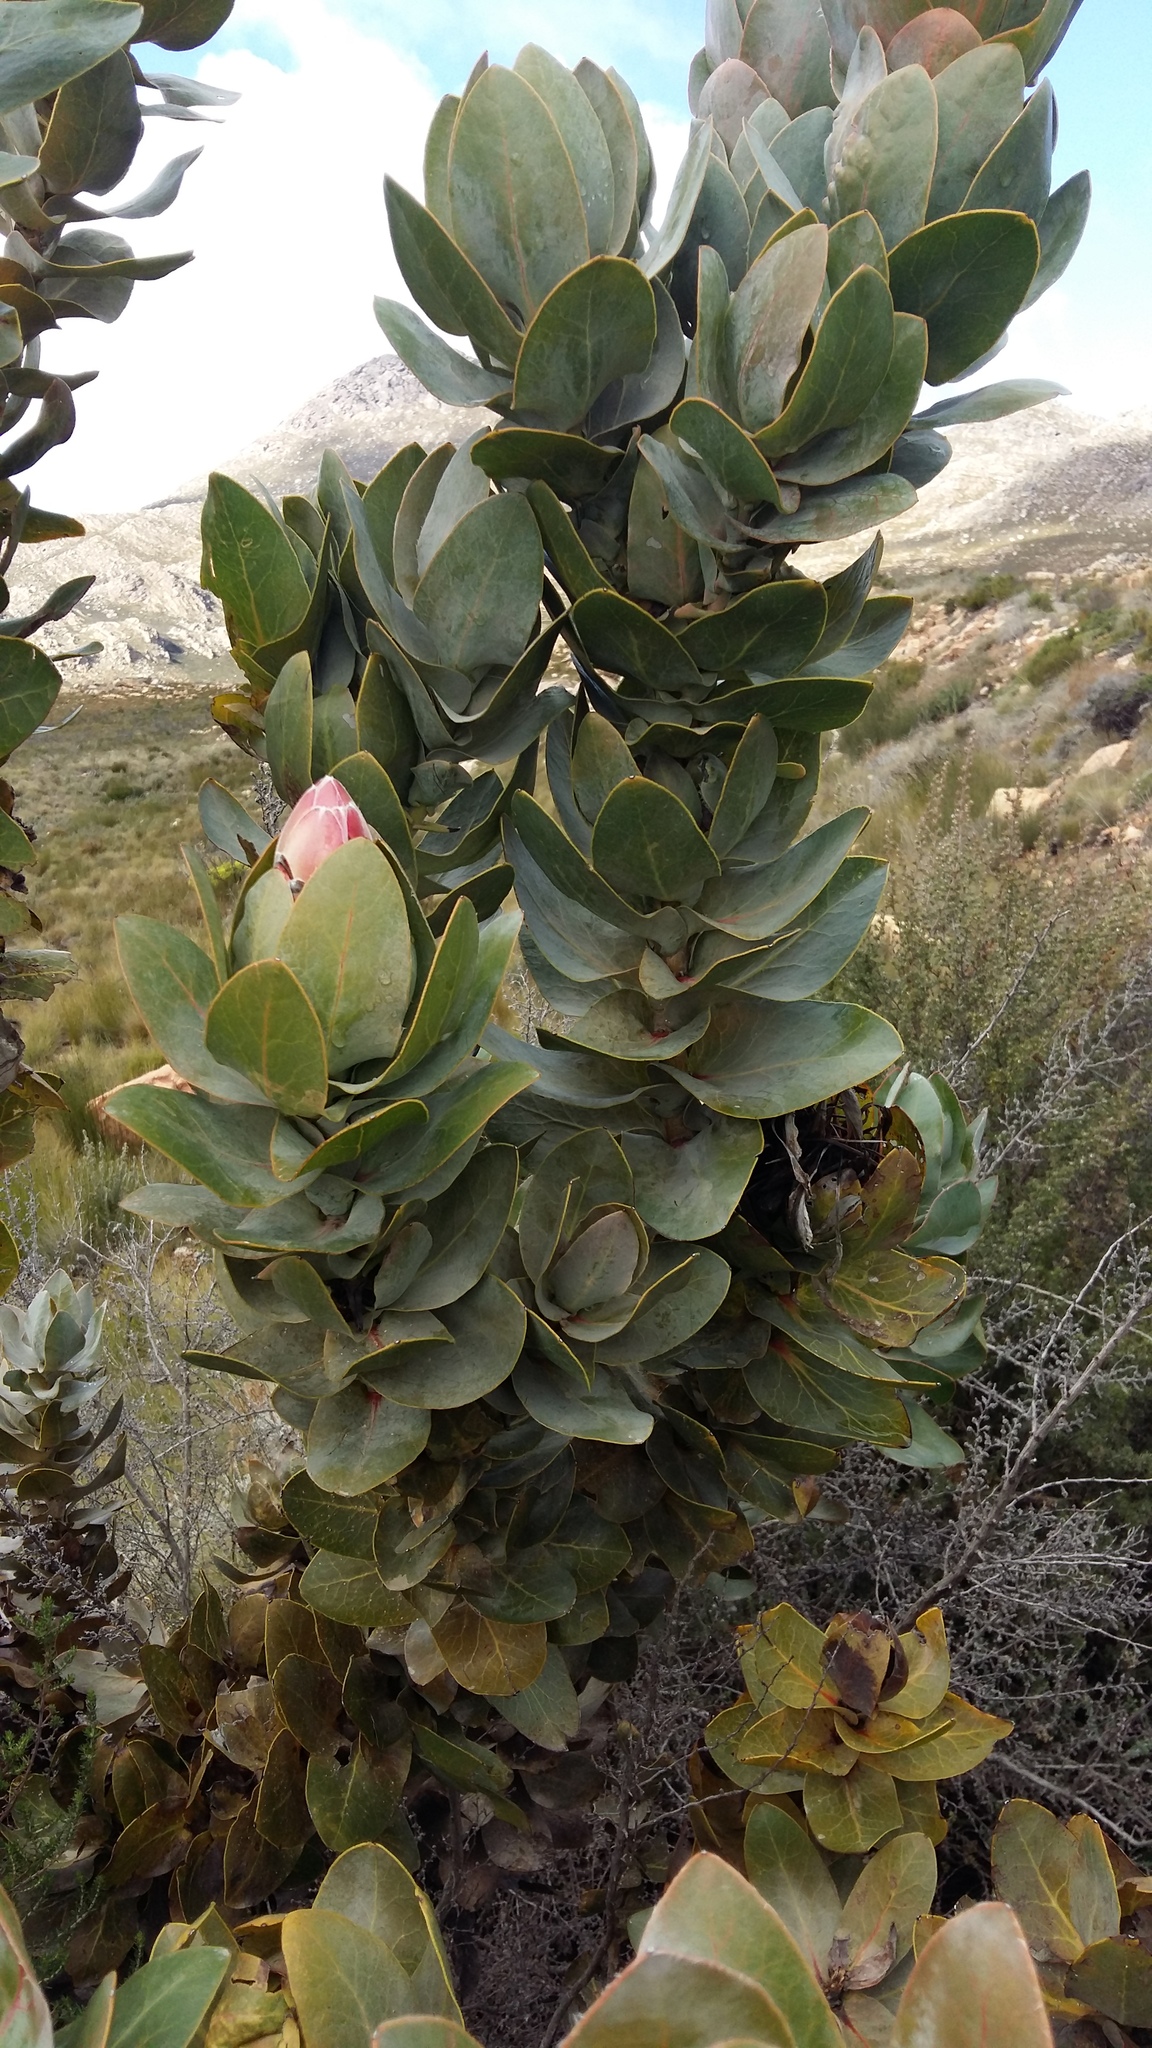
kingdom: Plantae
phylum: Tracheophyta
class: Magnoliopsida
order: Proteales
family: Proteaceae
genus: Protea
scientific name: Protea eximia
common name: Broad-leaved sugarbush
